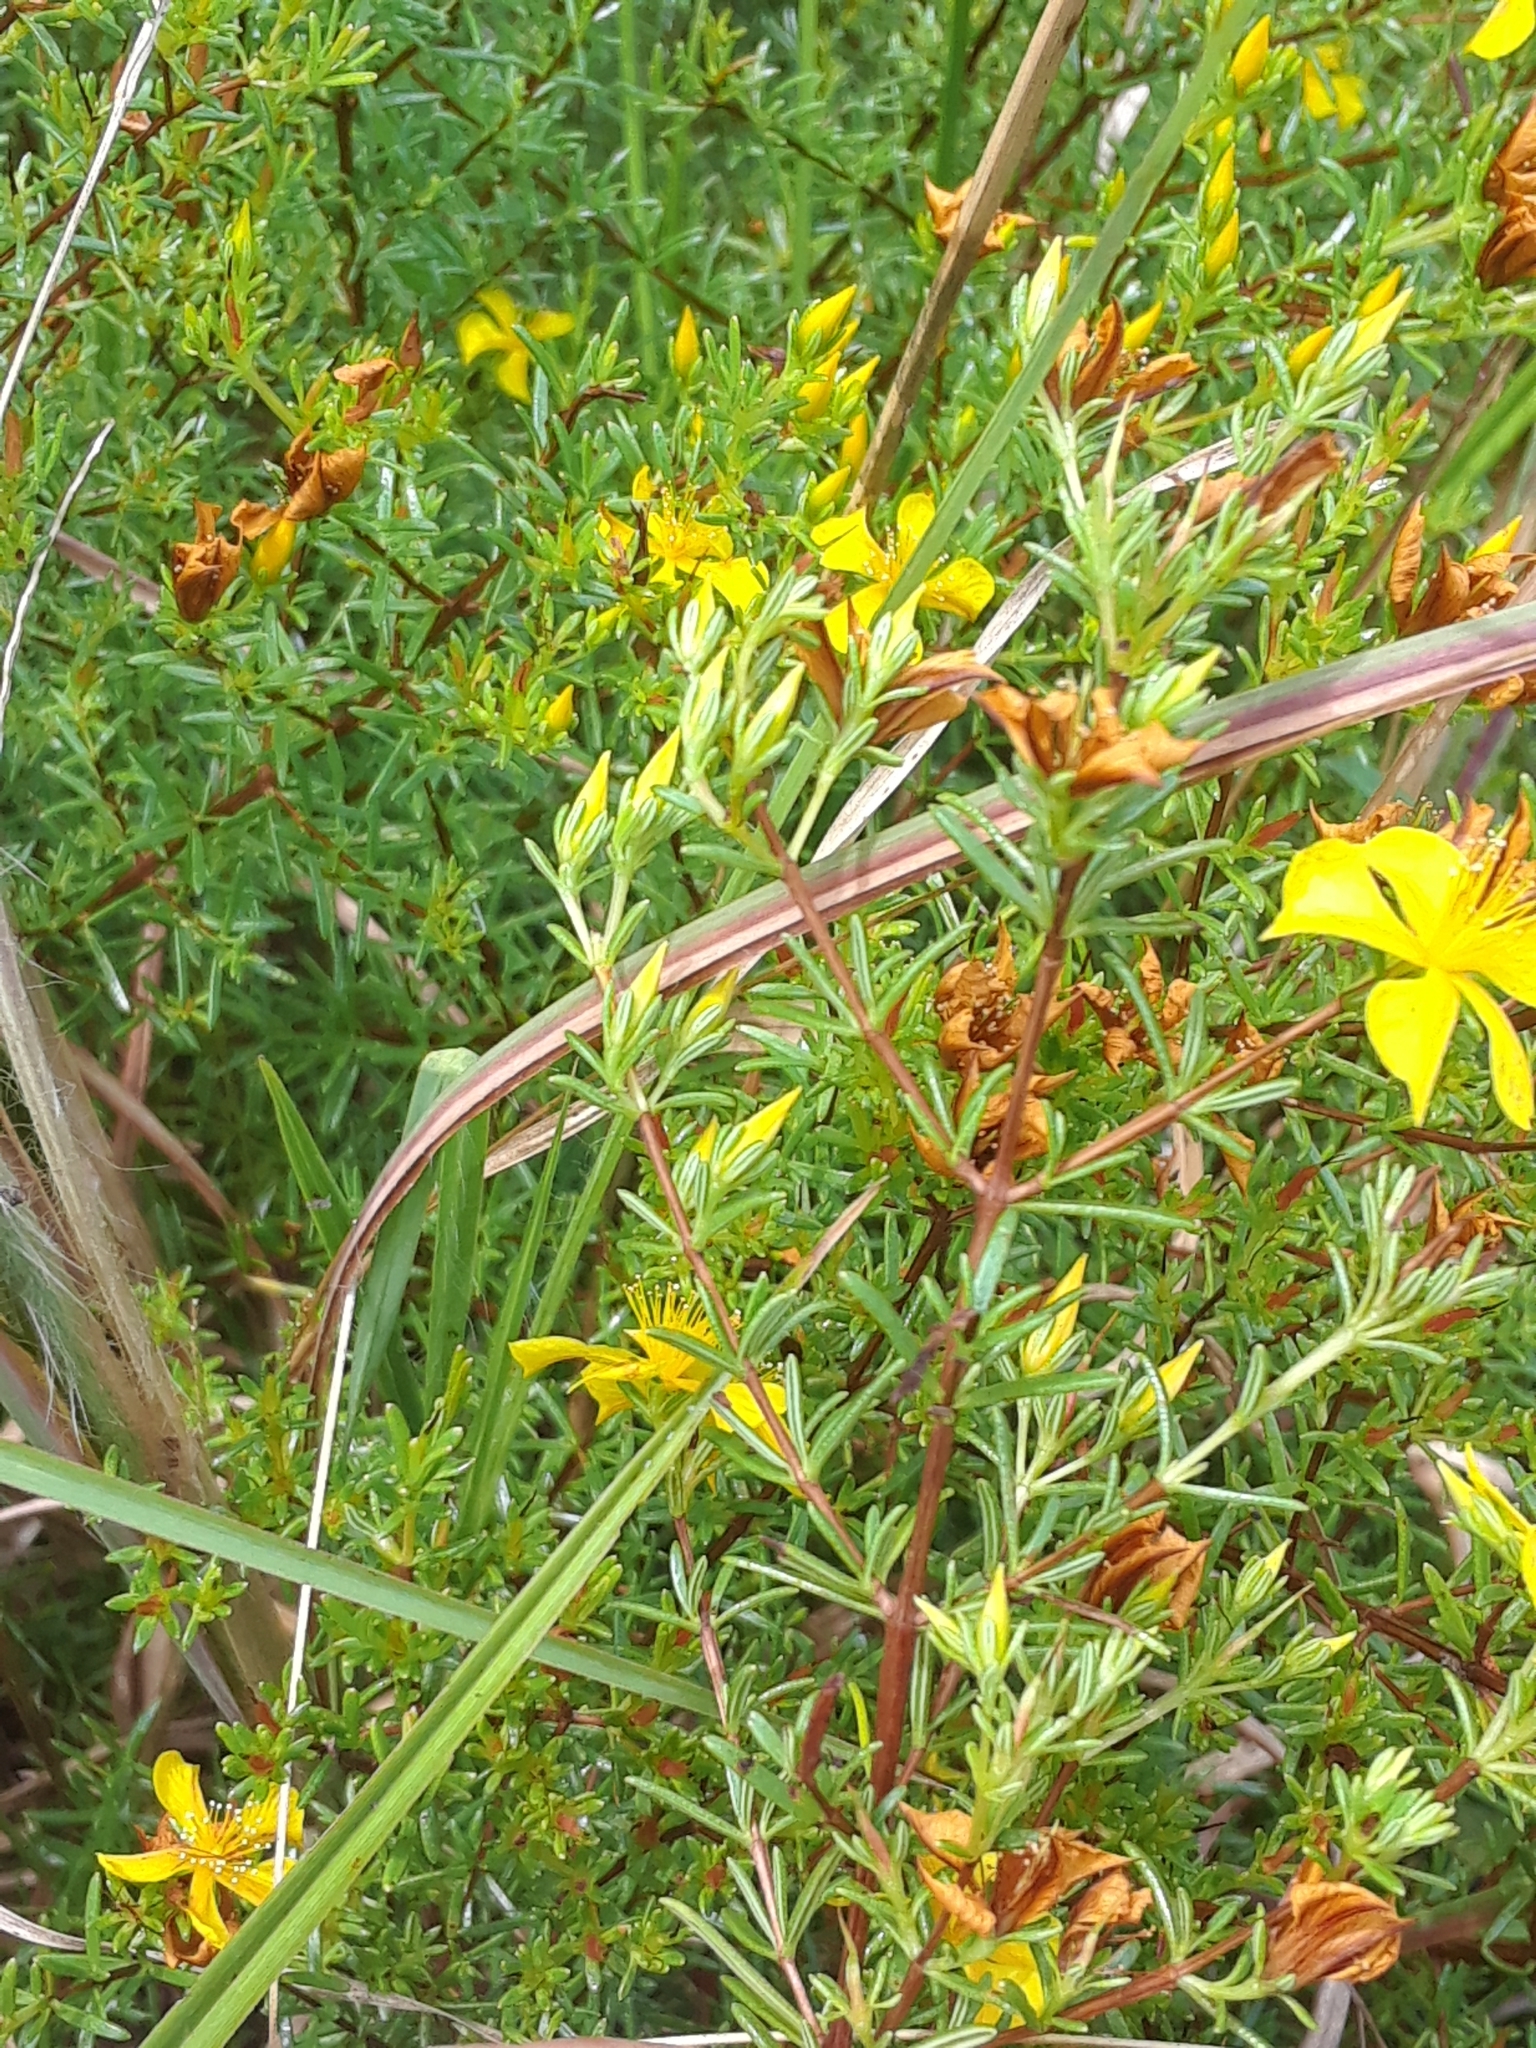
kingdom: Plantae
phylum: Tracheophyta
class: Magnoliopsida
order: Malpighiales
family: Hypericaceae
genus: Hypericum
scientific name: Hypericum brachyphyllum
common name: Coastal plain st. john's-wort
